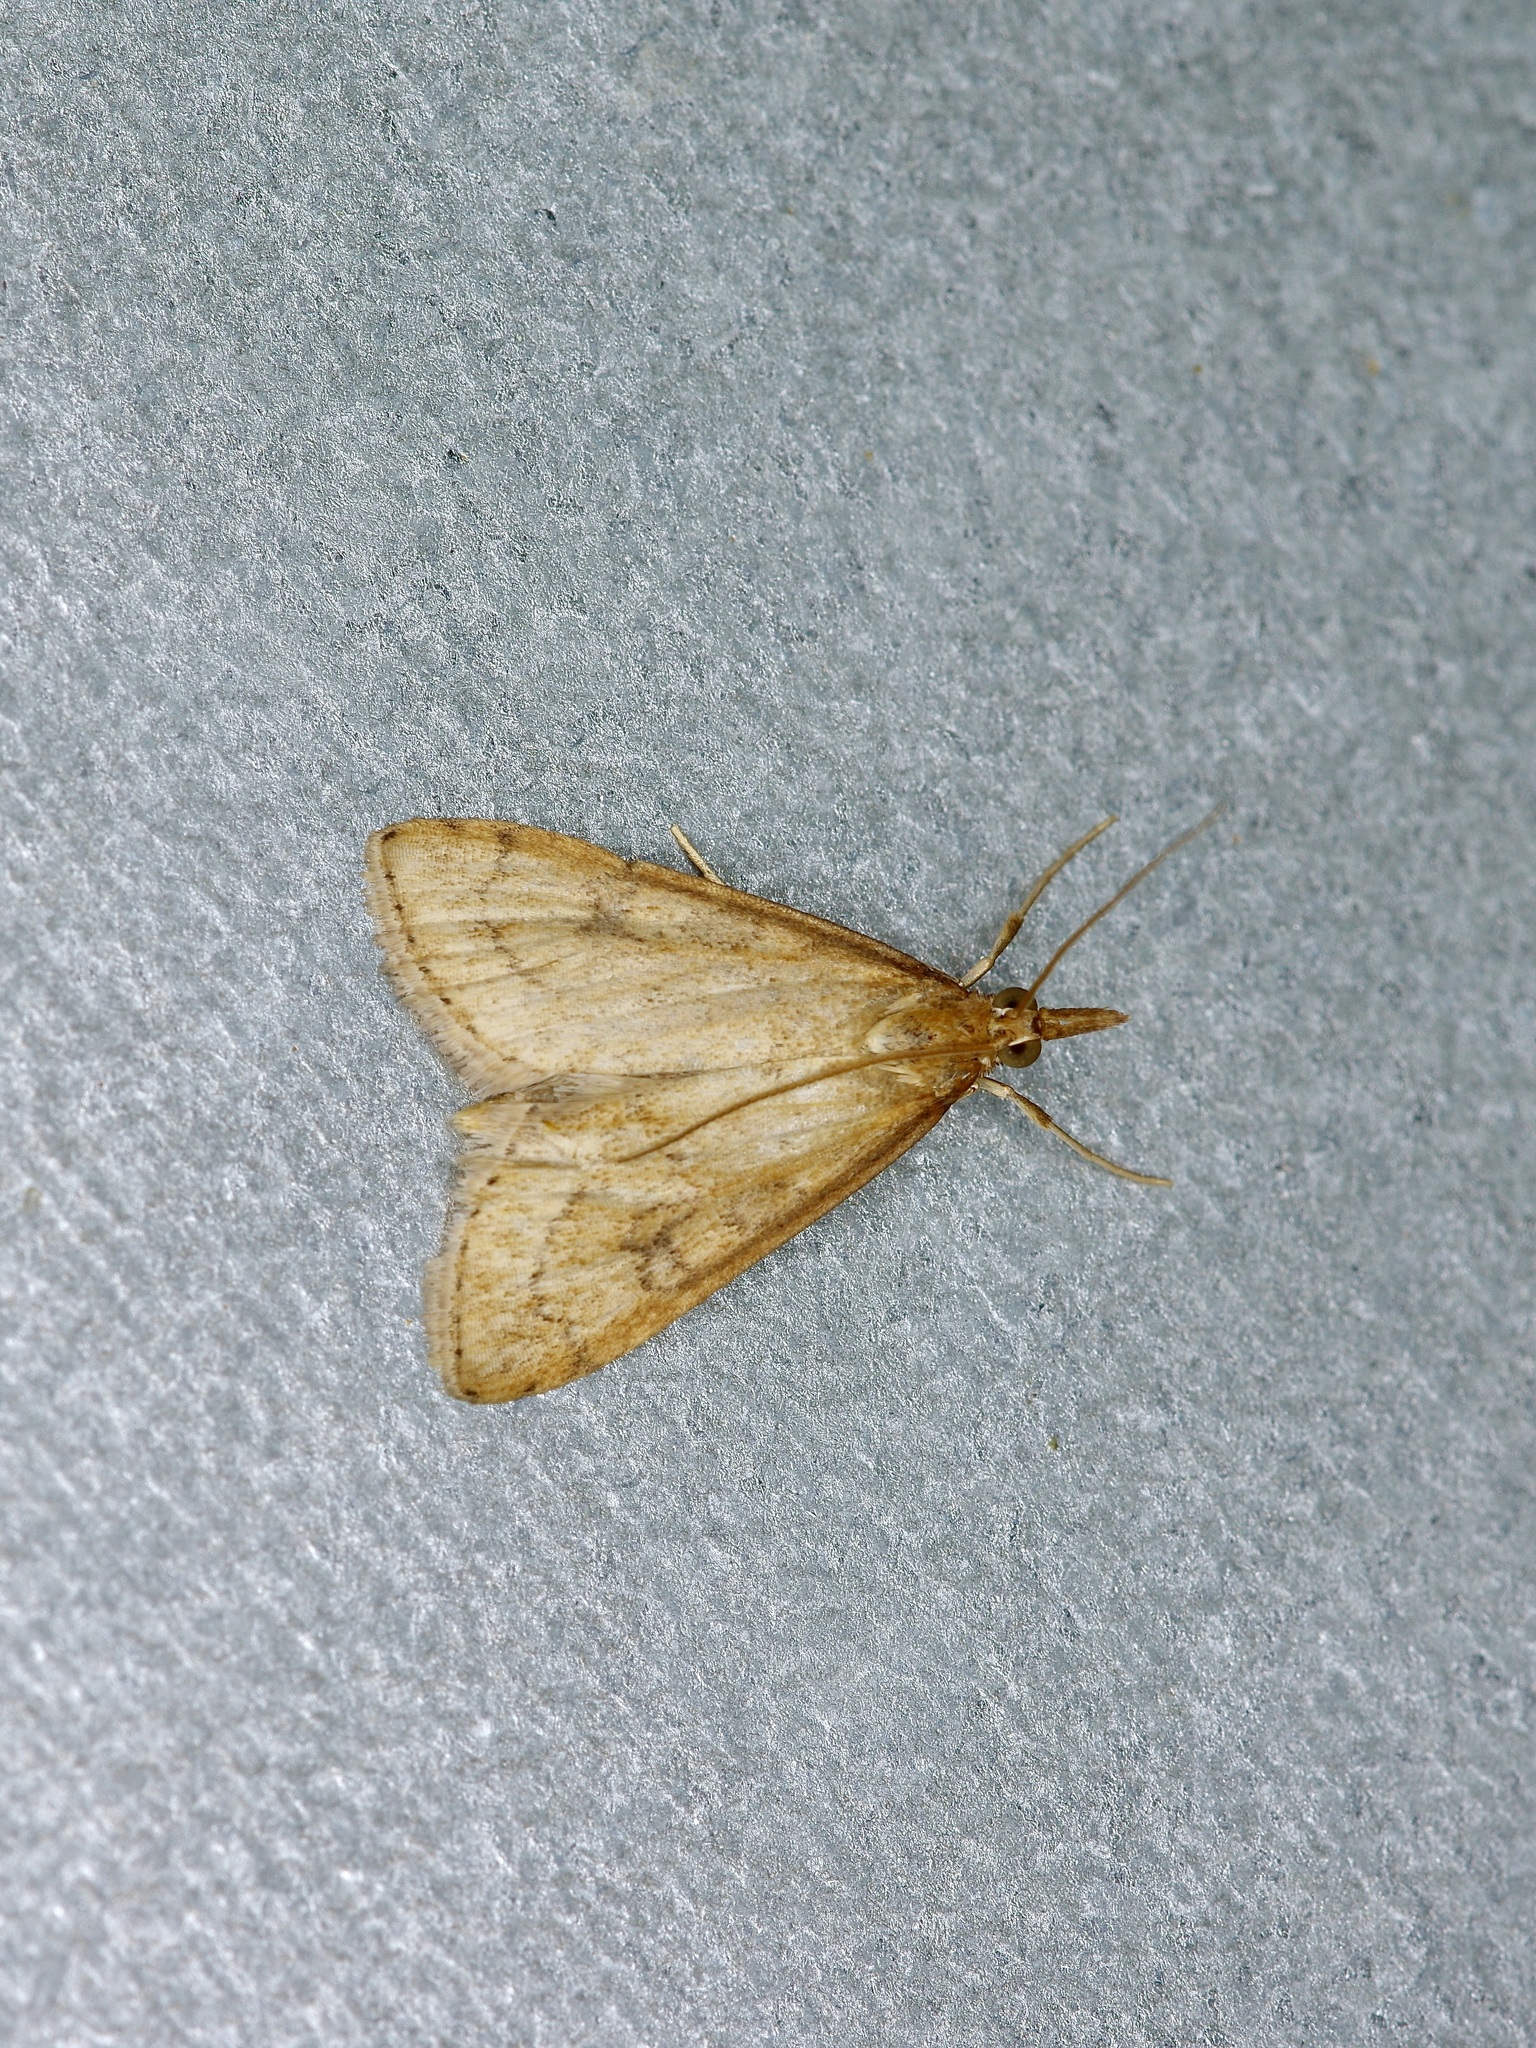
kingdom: Animalia
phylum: Arthropoda
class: Insecta
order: Lepidoptera
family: Crambidae
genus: Udea
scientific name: Udea rubigalis
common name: Celery leaftier moth
